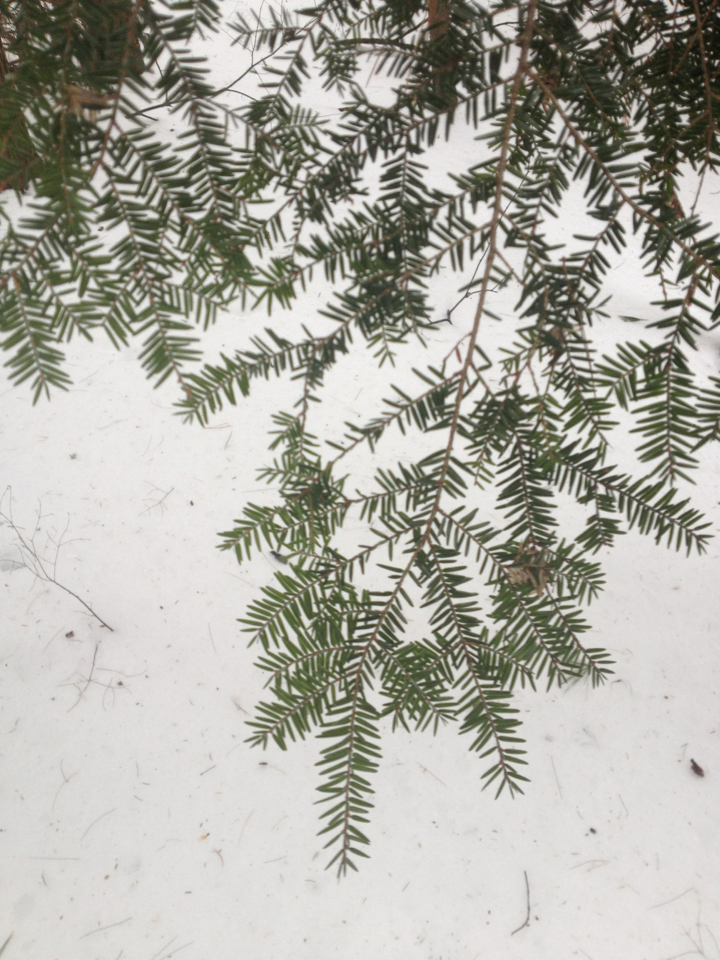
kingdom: Plantae
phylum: Tracheophyta
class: Pinopsida
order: Pinales
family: Pinaceae
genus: Tsuga
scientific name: Tsuga canadensis
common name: Eastern hemlock
